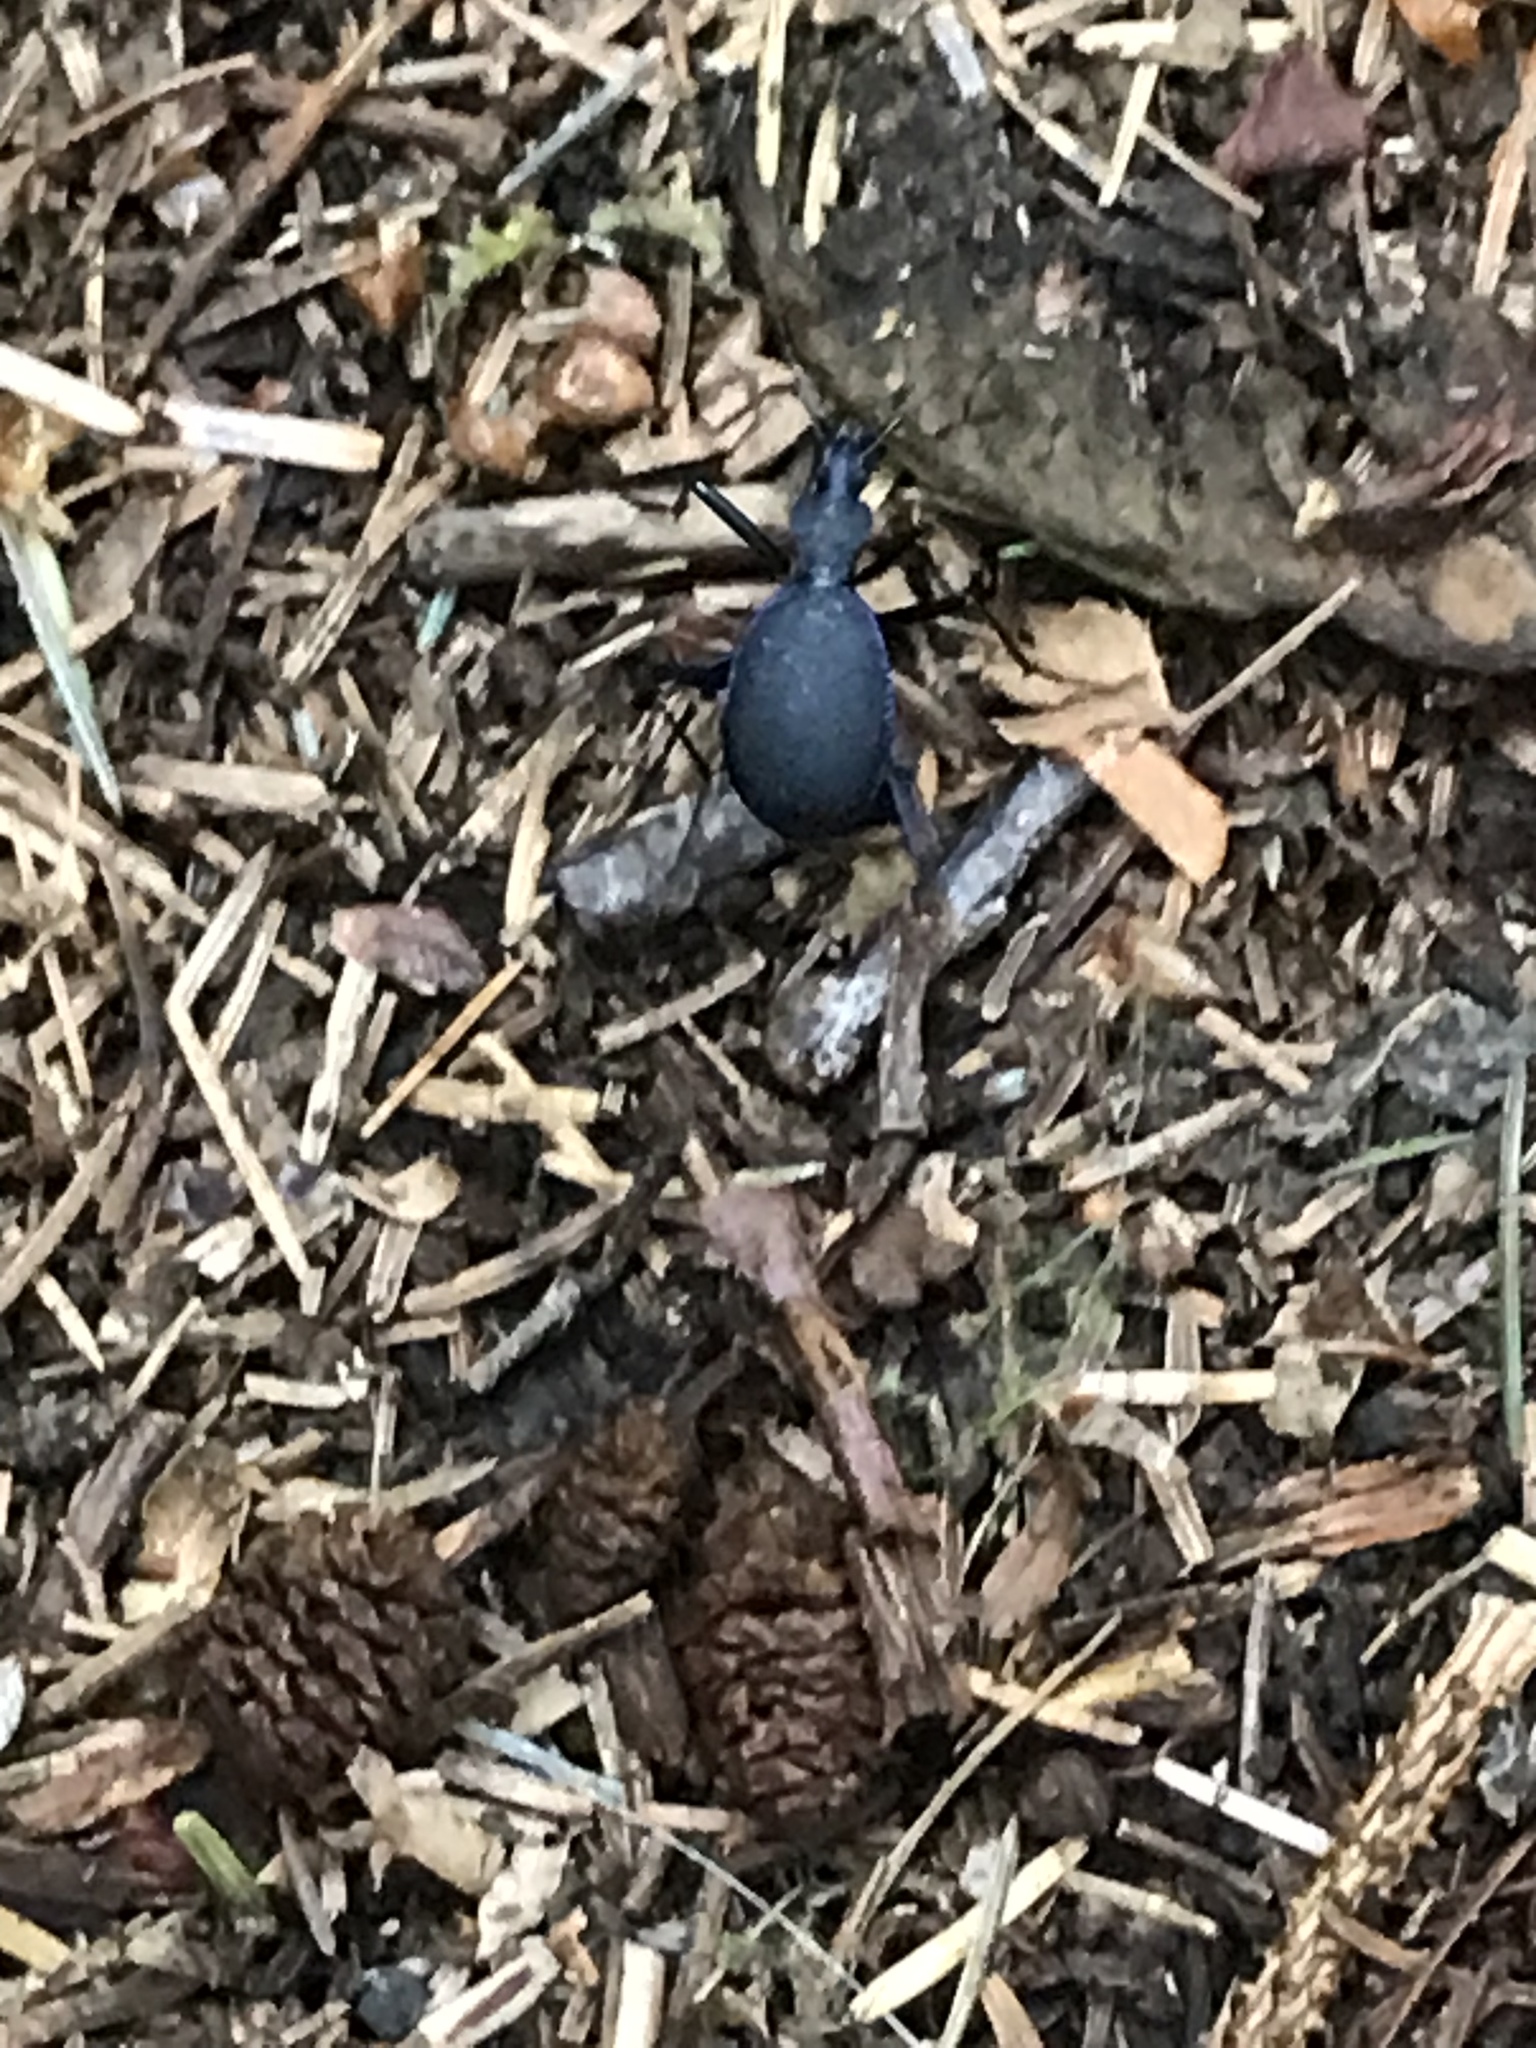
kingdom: Animalia
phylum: Arthropoda
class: Insecta
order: Coleoptera
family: Carabidae
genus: Scaphinotus
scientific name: Scaphinotus angusticollis
